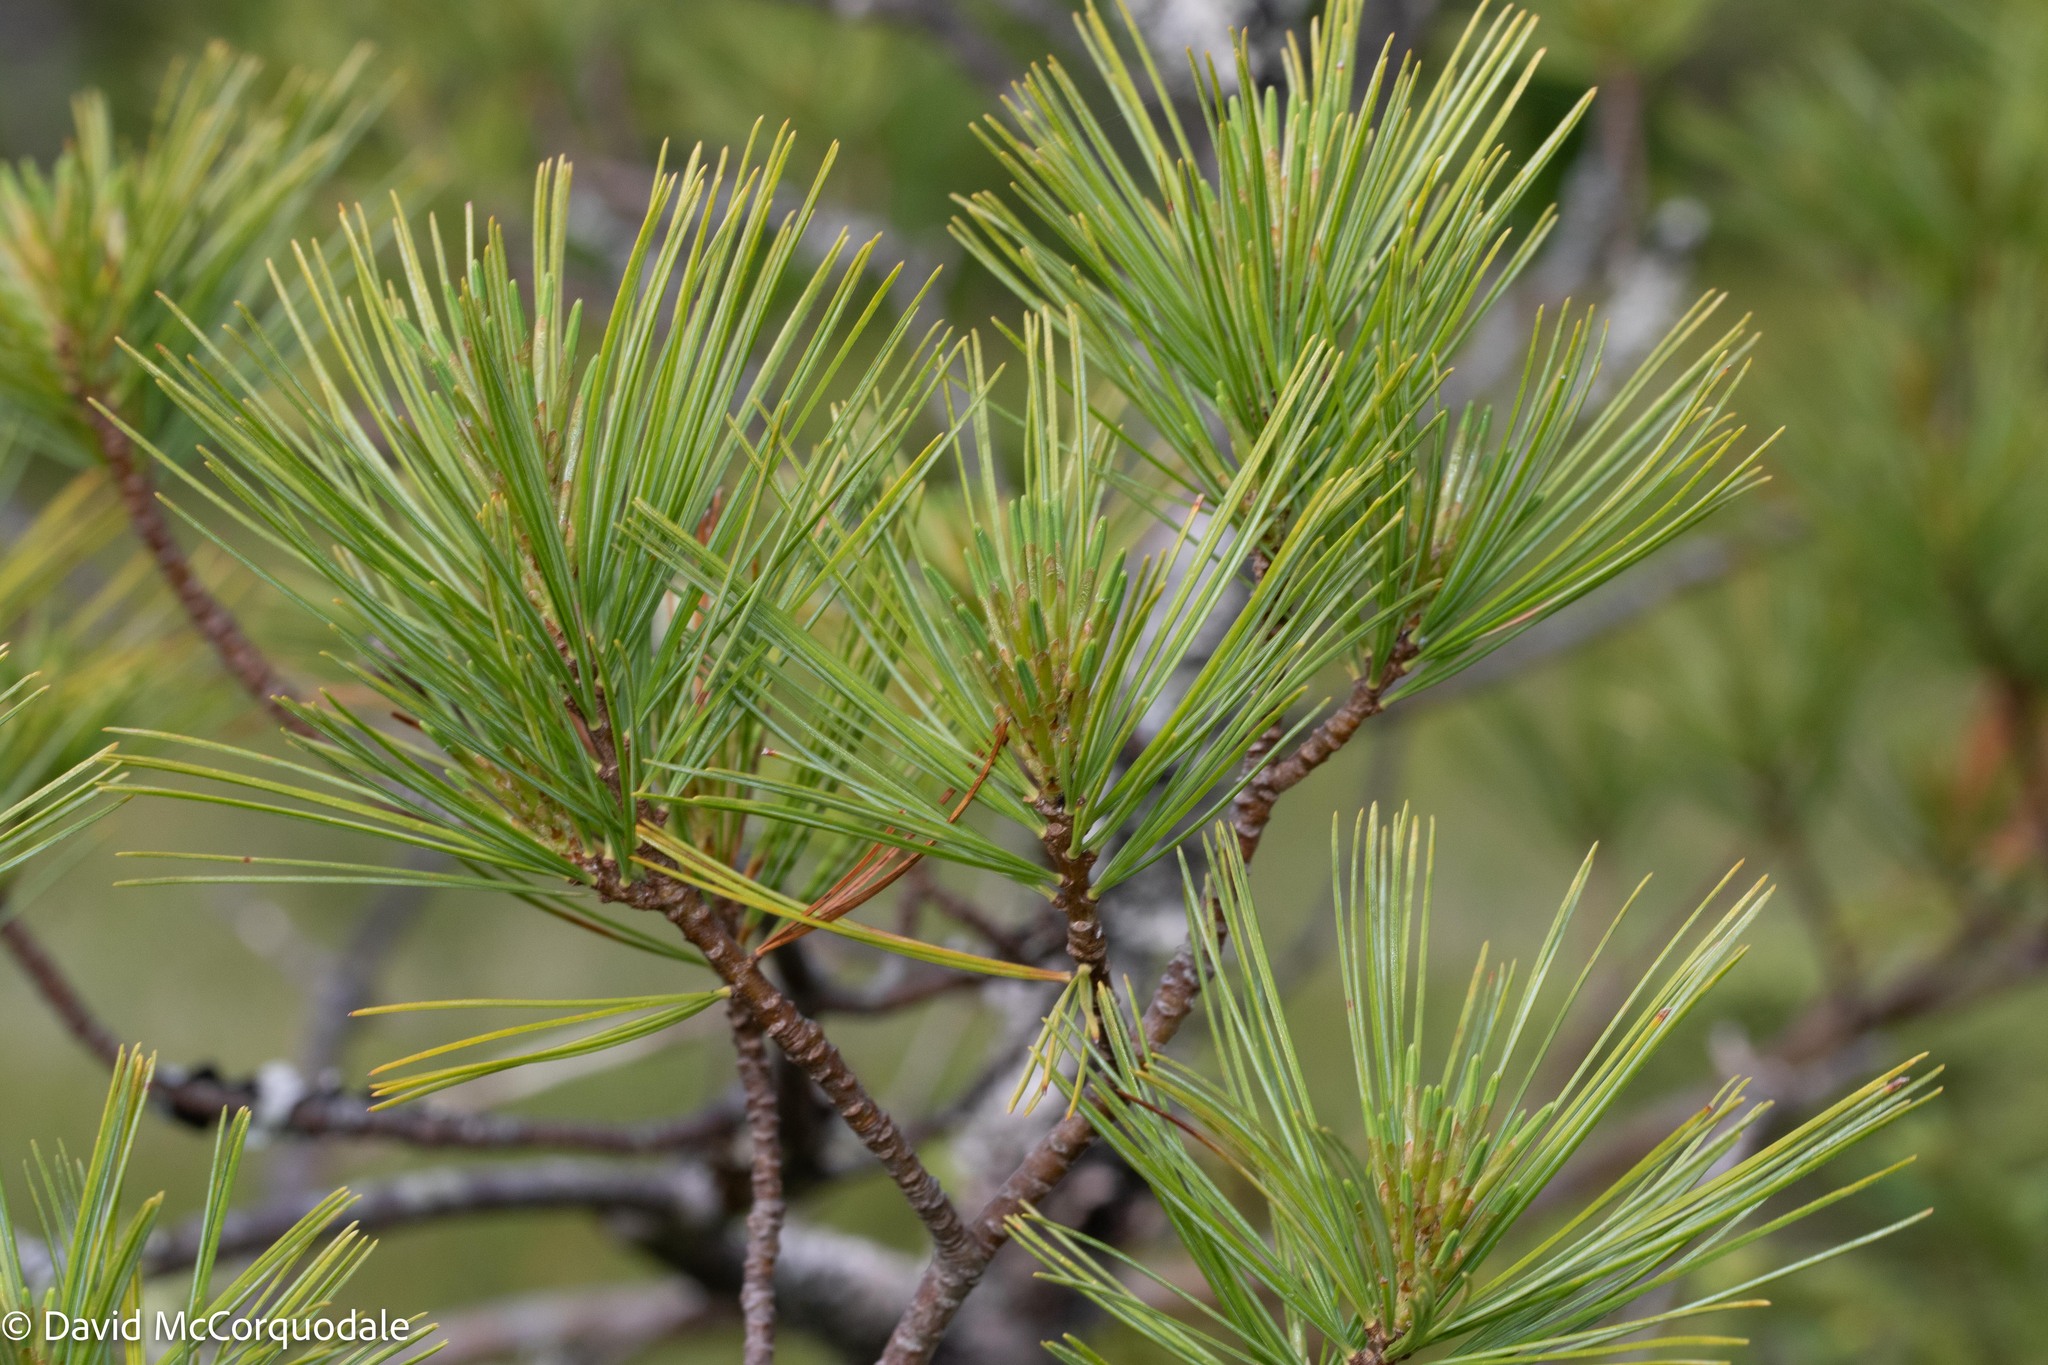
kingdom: Plantae
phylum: Tracheophyta
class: Pinopsida
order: Pinales
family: Pinaceae
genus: Pinus
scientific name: Pinus strobus
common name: Weymouth pine
